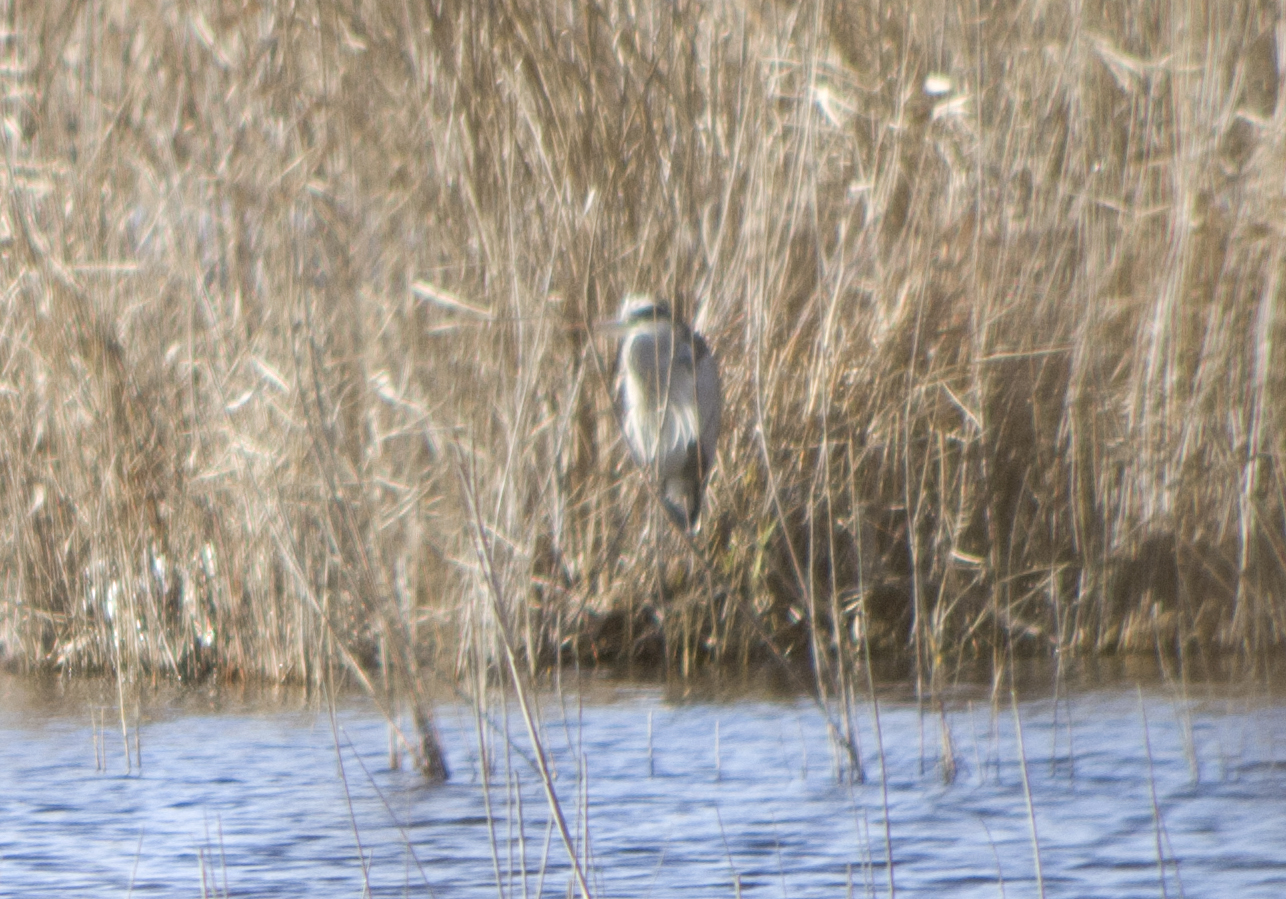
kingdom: Animalia
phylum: Chordata
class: Aves
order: Pelecaniformes
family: Ardeidae
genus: Ardea
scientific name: Ardea cinerea
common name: Grey heron
